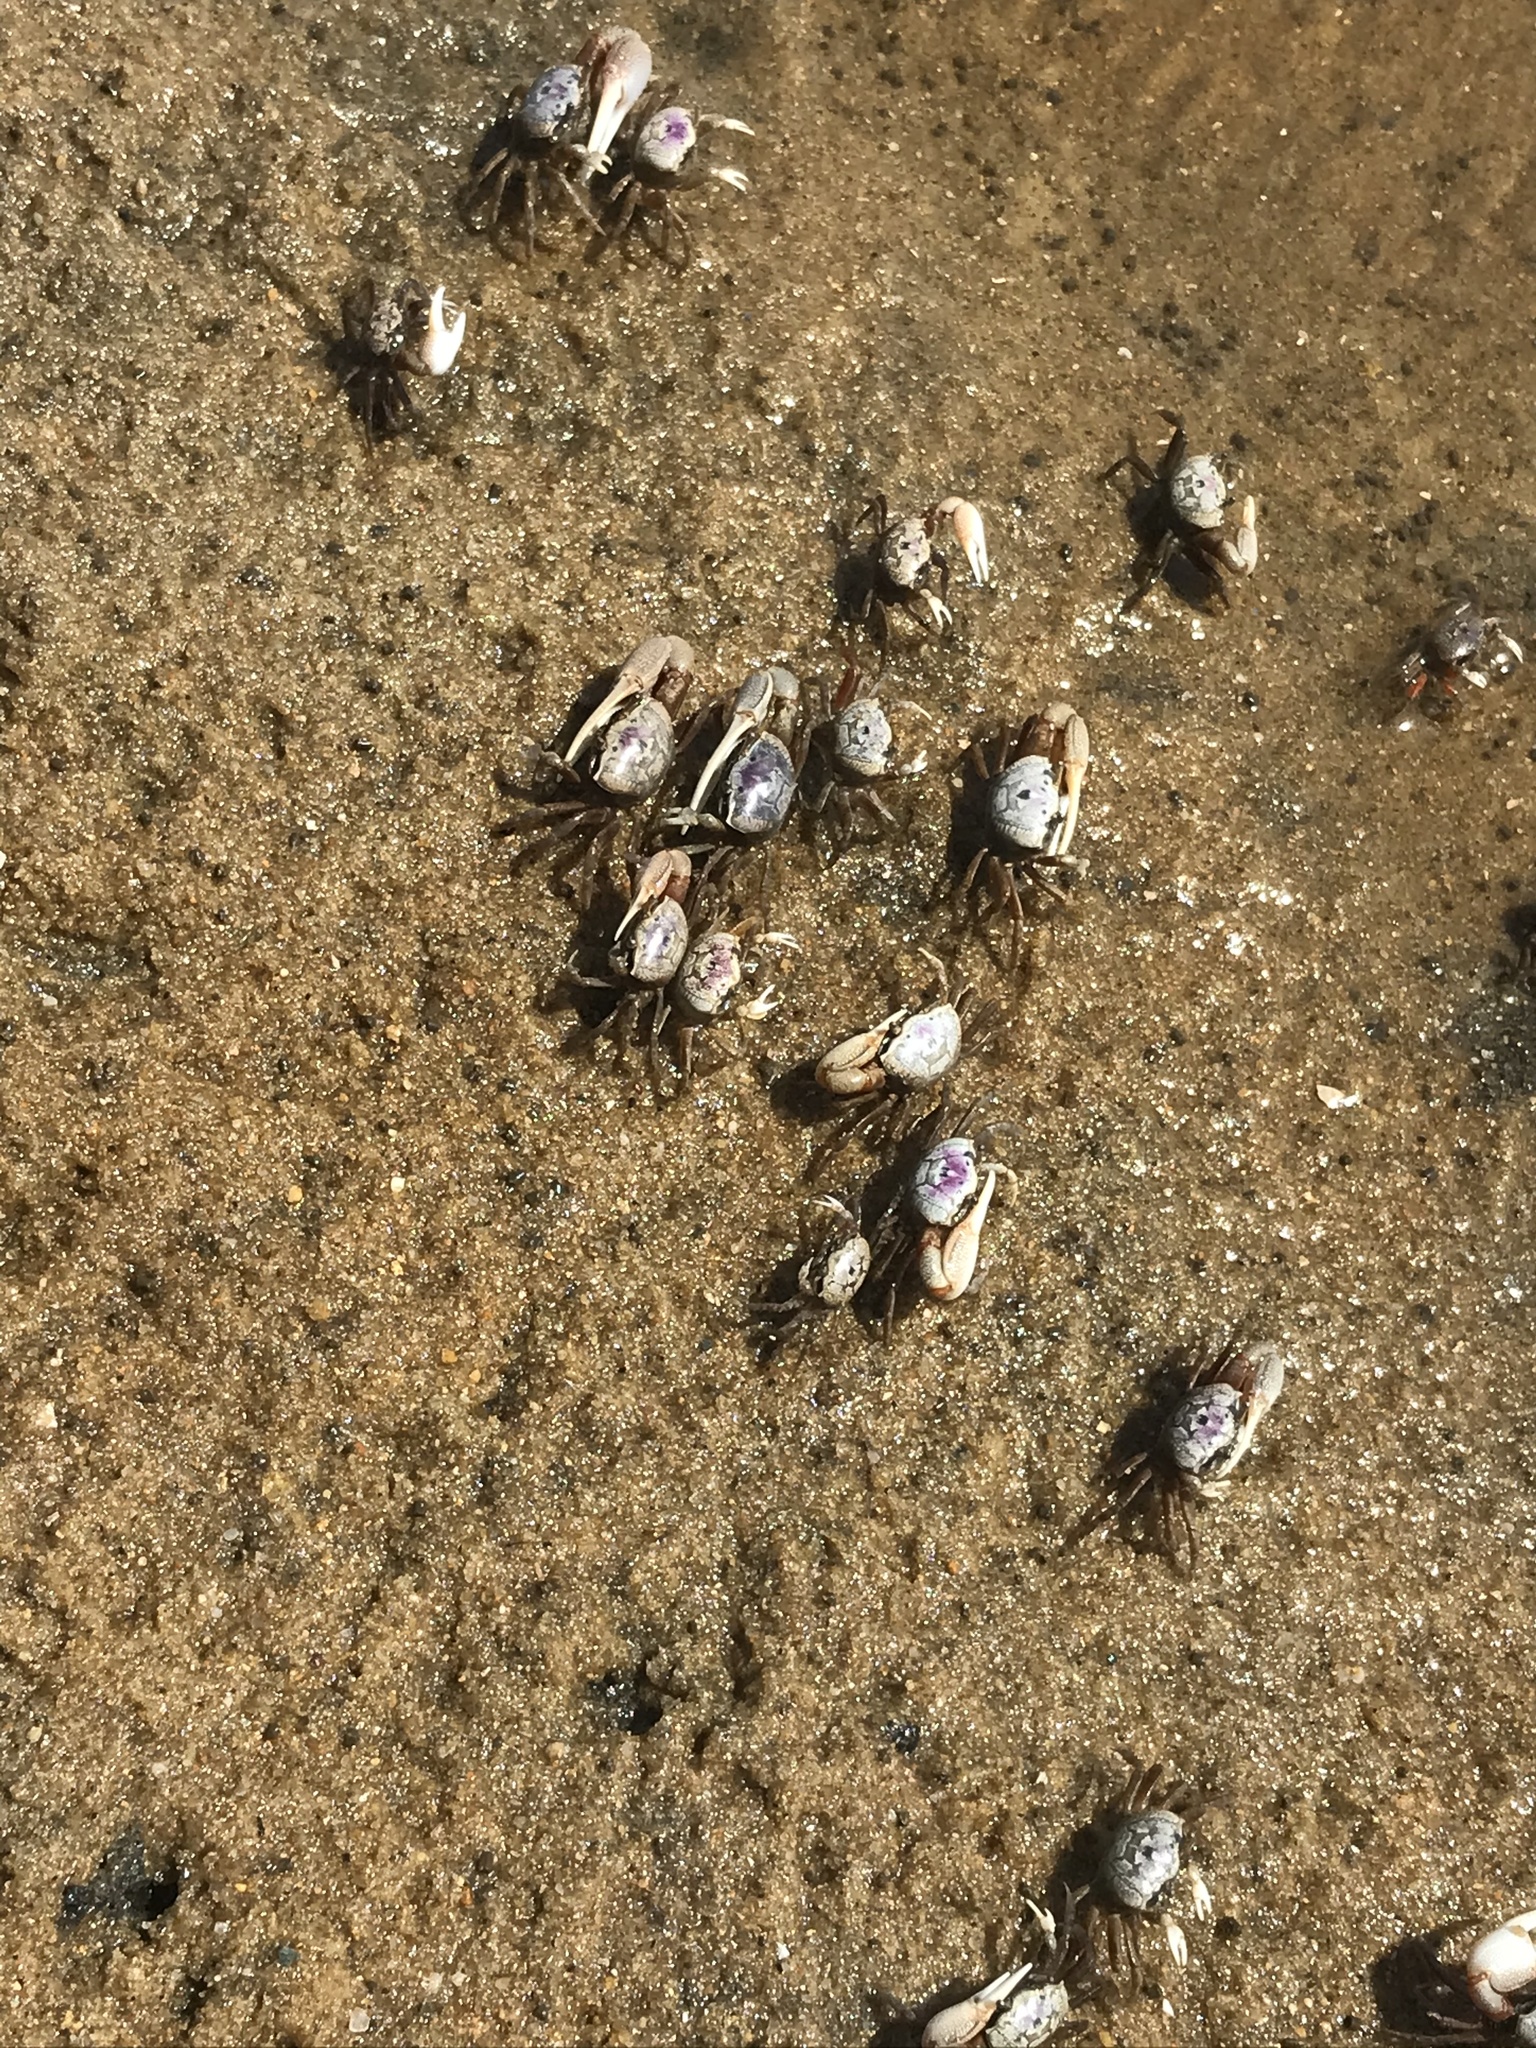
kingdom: Animalia
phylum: Arthropoda
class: Malacostraca
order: Decapoda
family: Ocypodidae
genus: Leptuca
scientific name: Leptuca pugilator
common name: Atlantic sand fiddler crab
